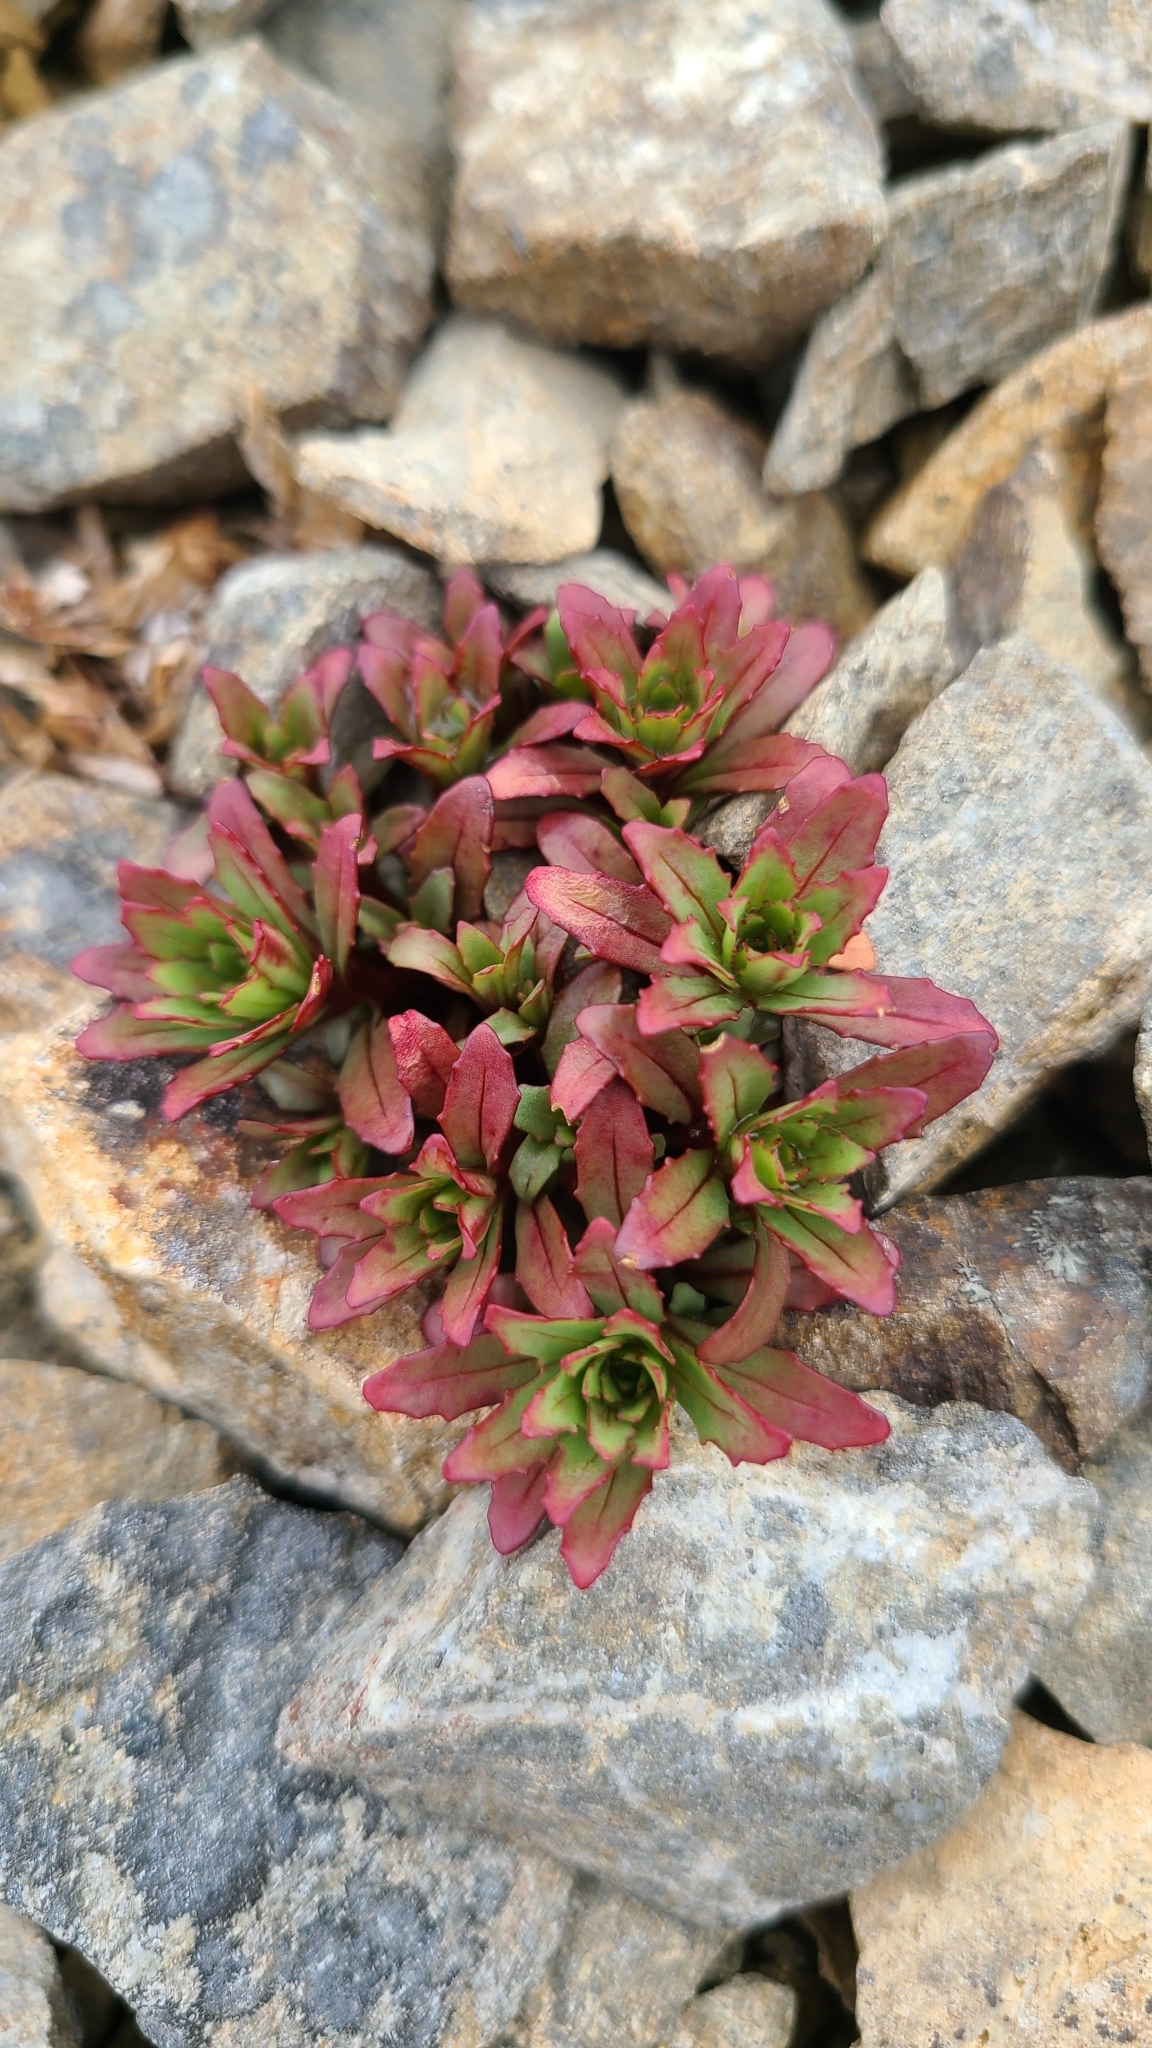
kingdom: Plantae
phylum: Tracheophyta
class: Magnoliopsida
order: Myrtales
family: Onagraceae
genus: Epilobium
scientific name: Epilobium pycnostachyum
